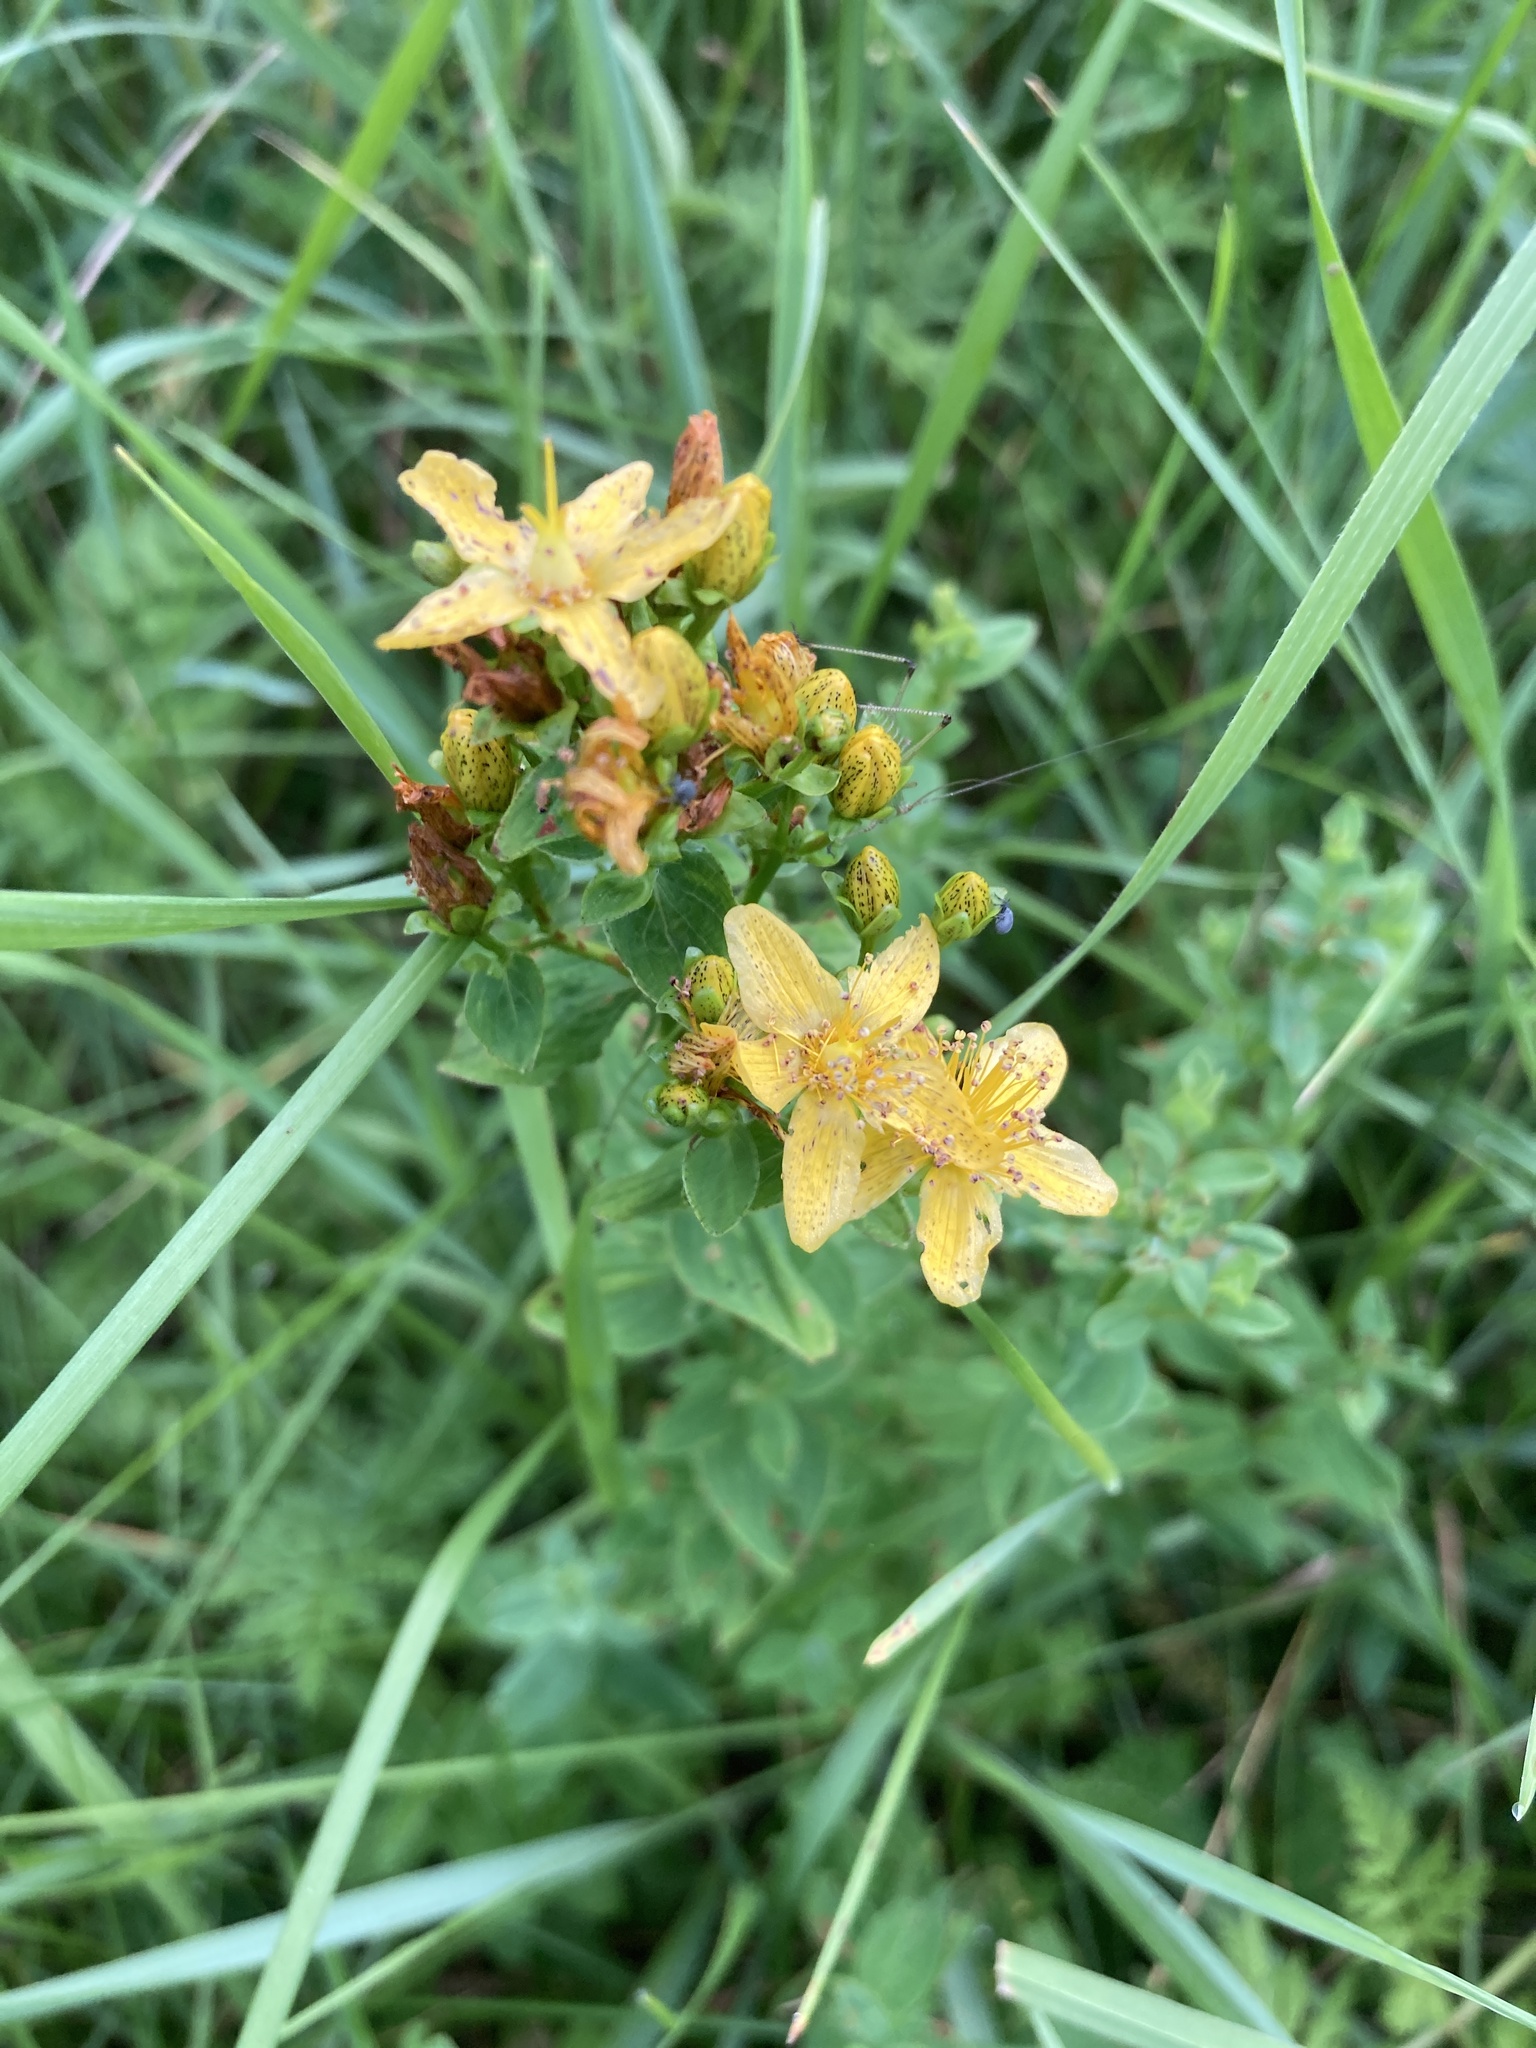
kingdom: Plantae
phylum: Tracheophyta
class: Magnoliopsida
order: Malpighiales
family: Hypericaceae
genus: Hypericum
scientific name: Hypericum maculatum
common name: Imperforate st. john's-wort
